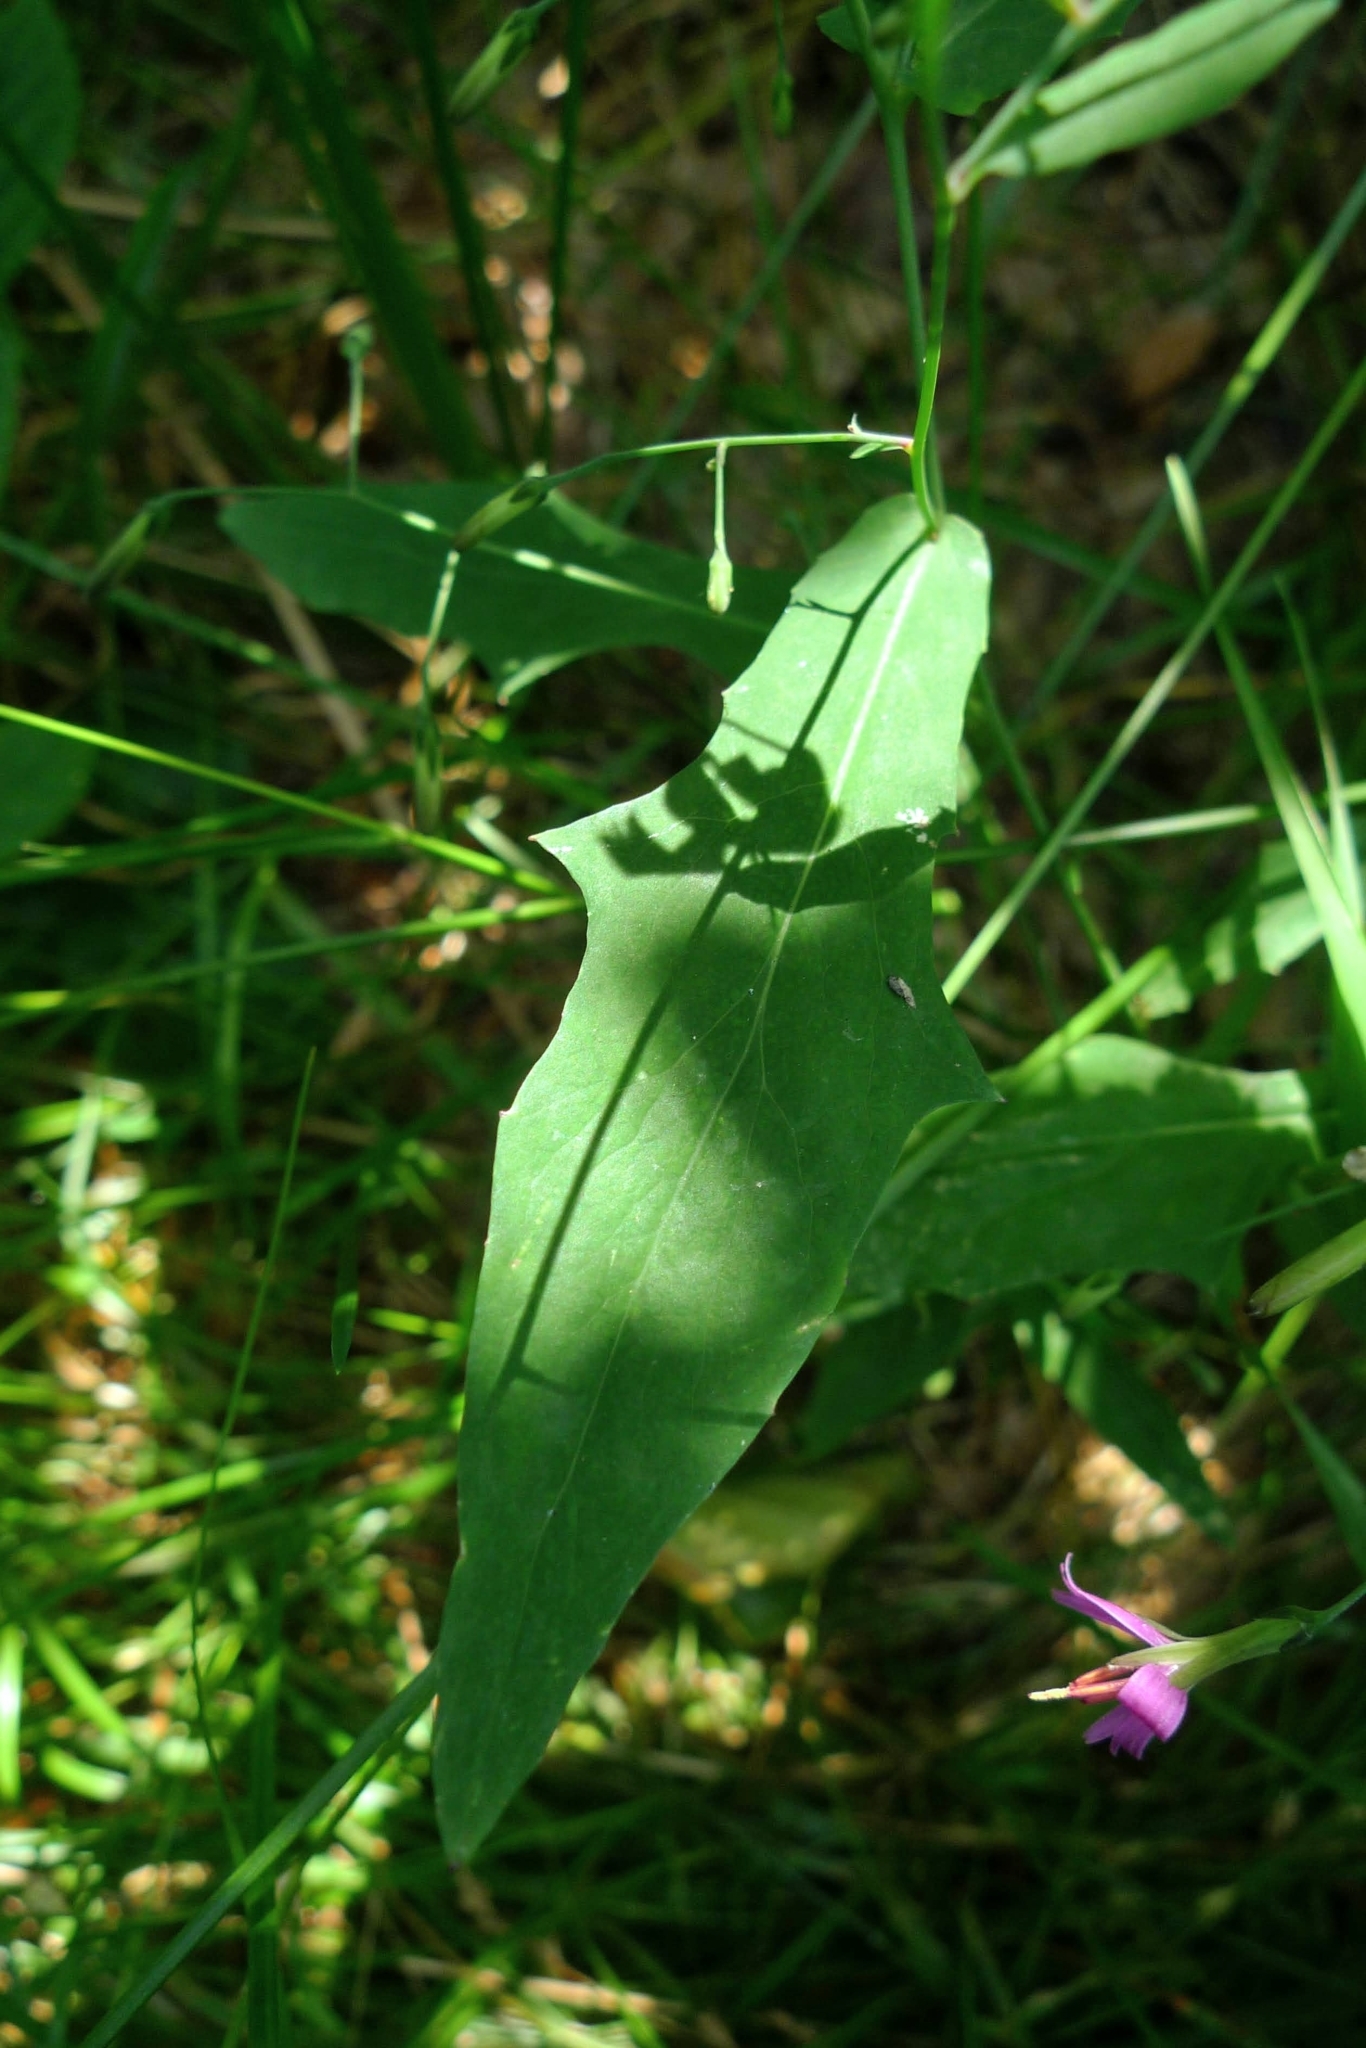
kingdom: Plantae
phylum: Tracheophyta
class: Magnoliopsida
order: Asterales
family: Asteraceae
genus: Prenanthes
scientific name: Prenanthes purpurea
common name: Purple lettuce
